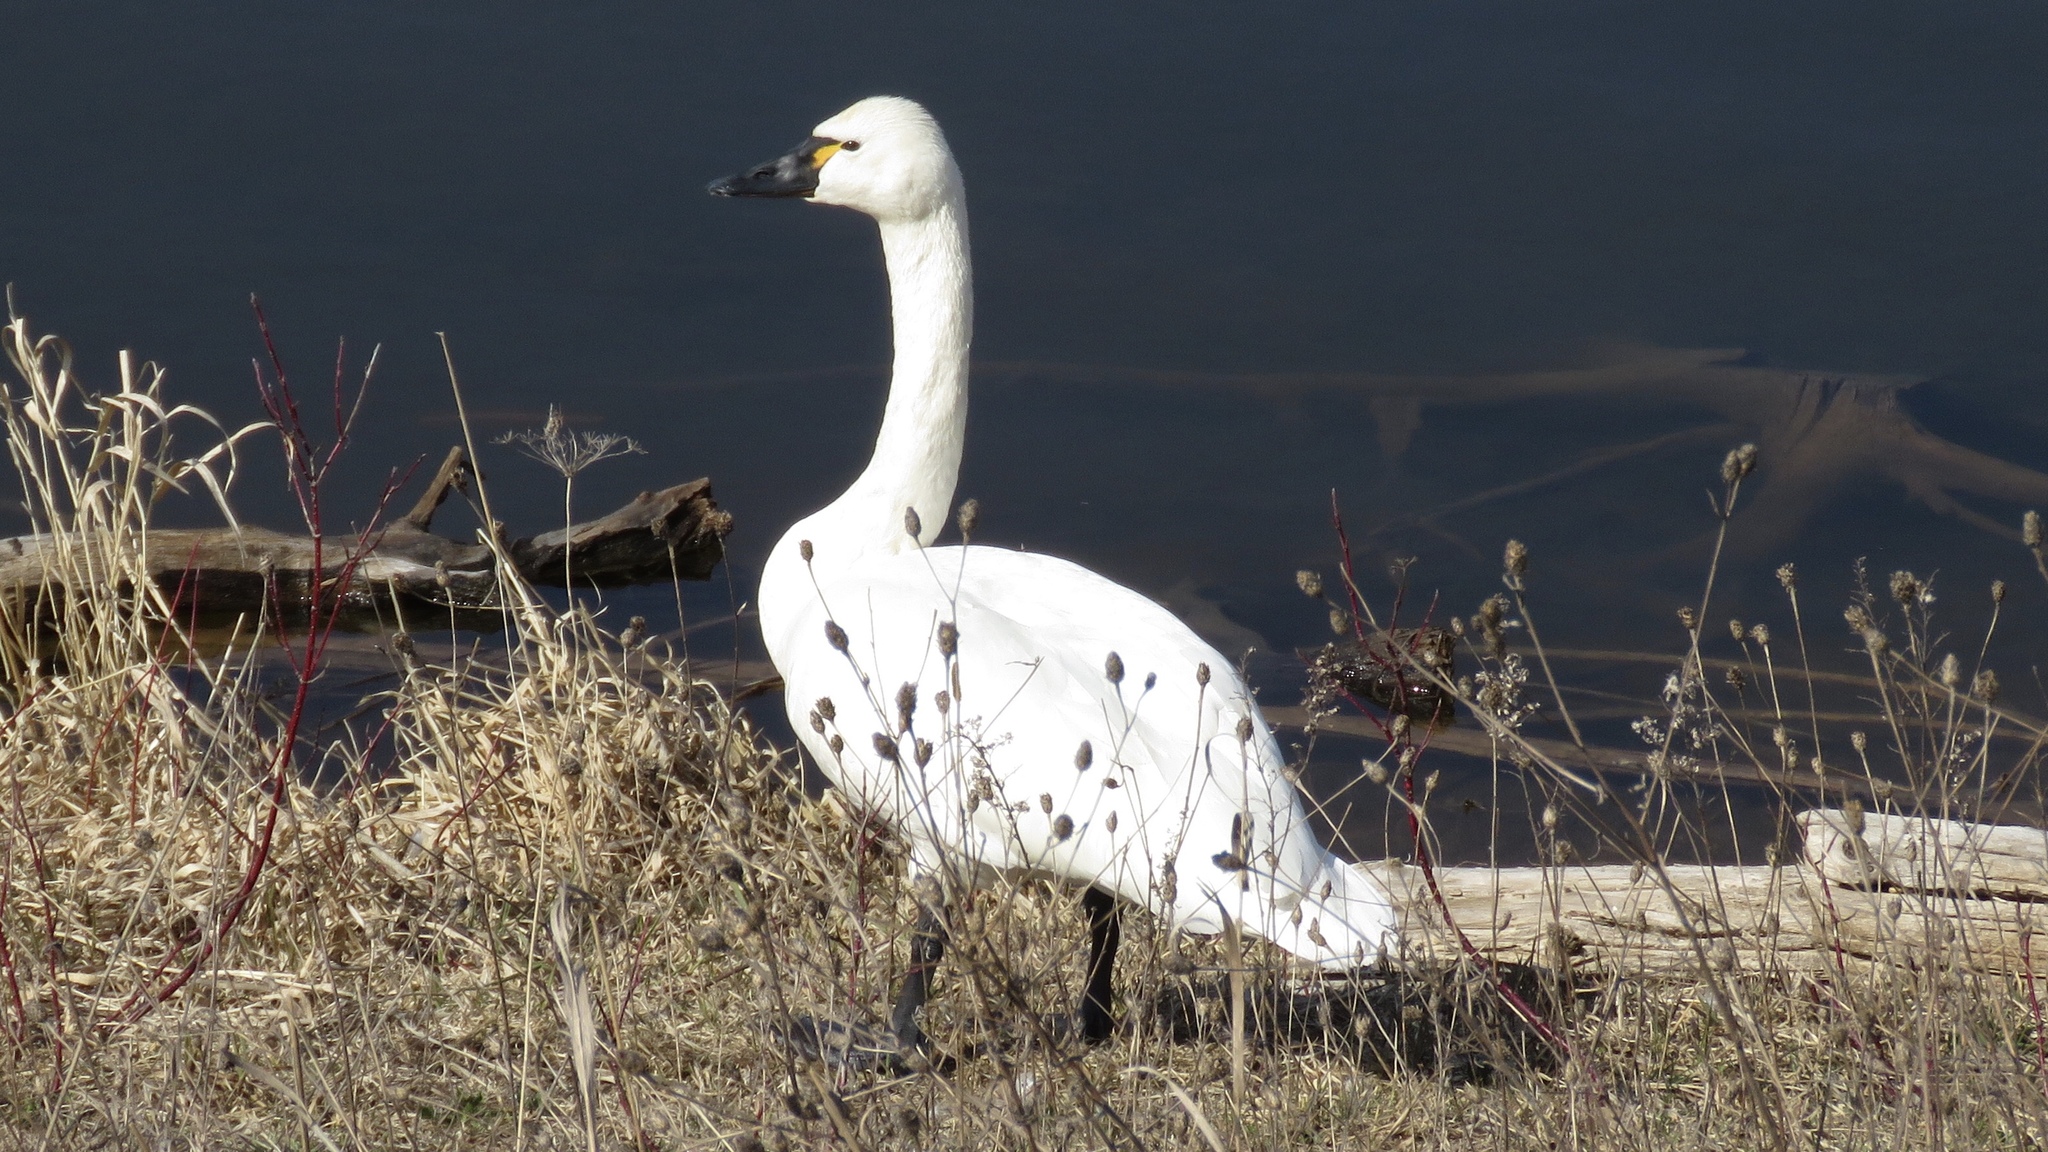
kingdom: Animalia
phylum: Chordata
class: Aves
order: Anseriformes
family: Anatidae
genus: Cygnus
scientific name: Cygnus columbianus
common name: Tundra swan
